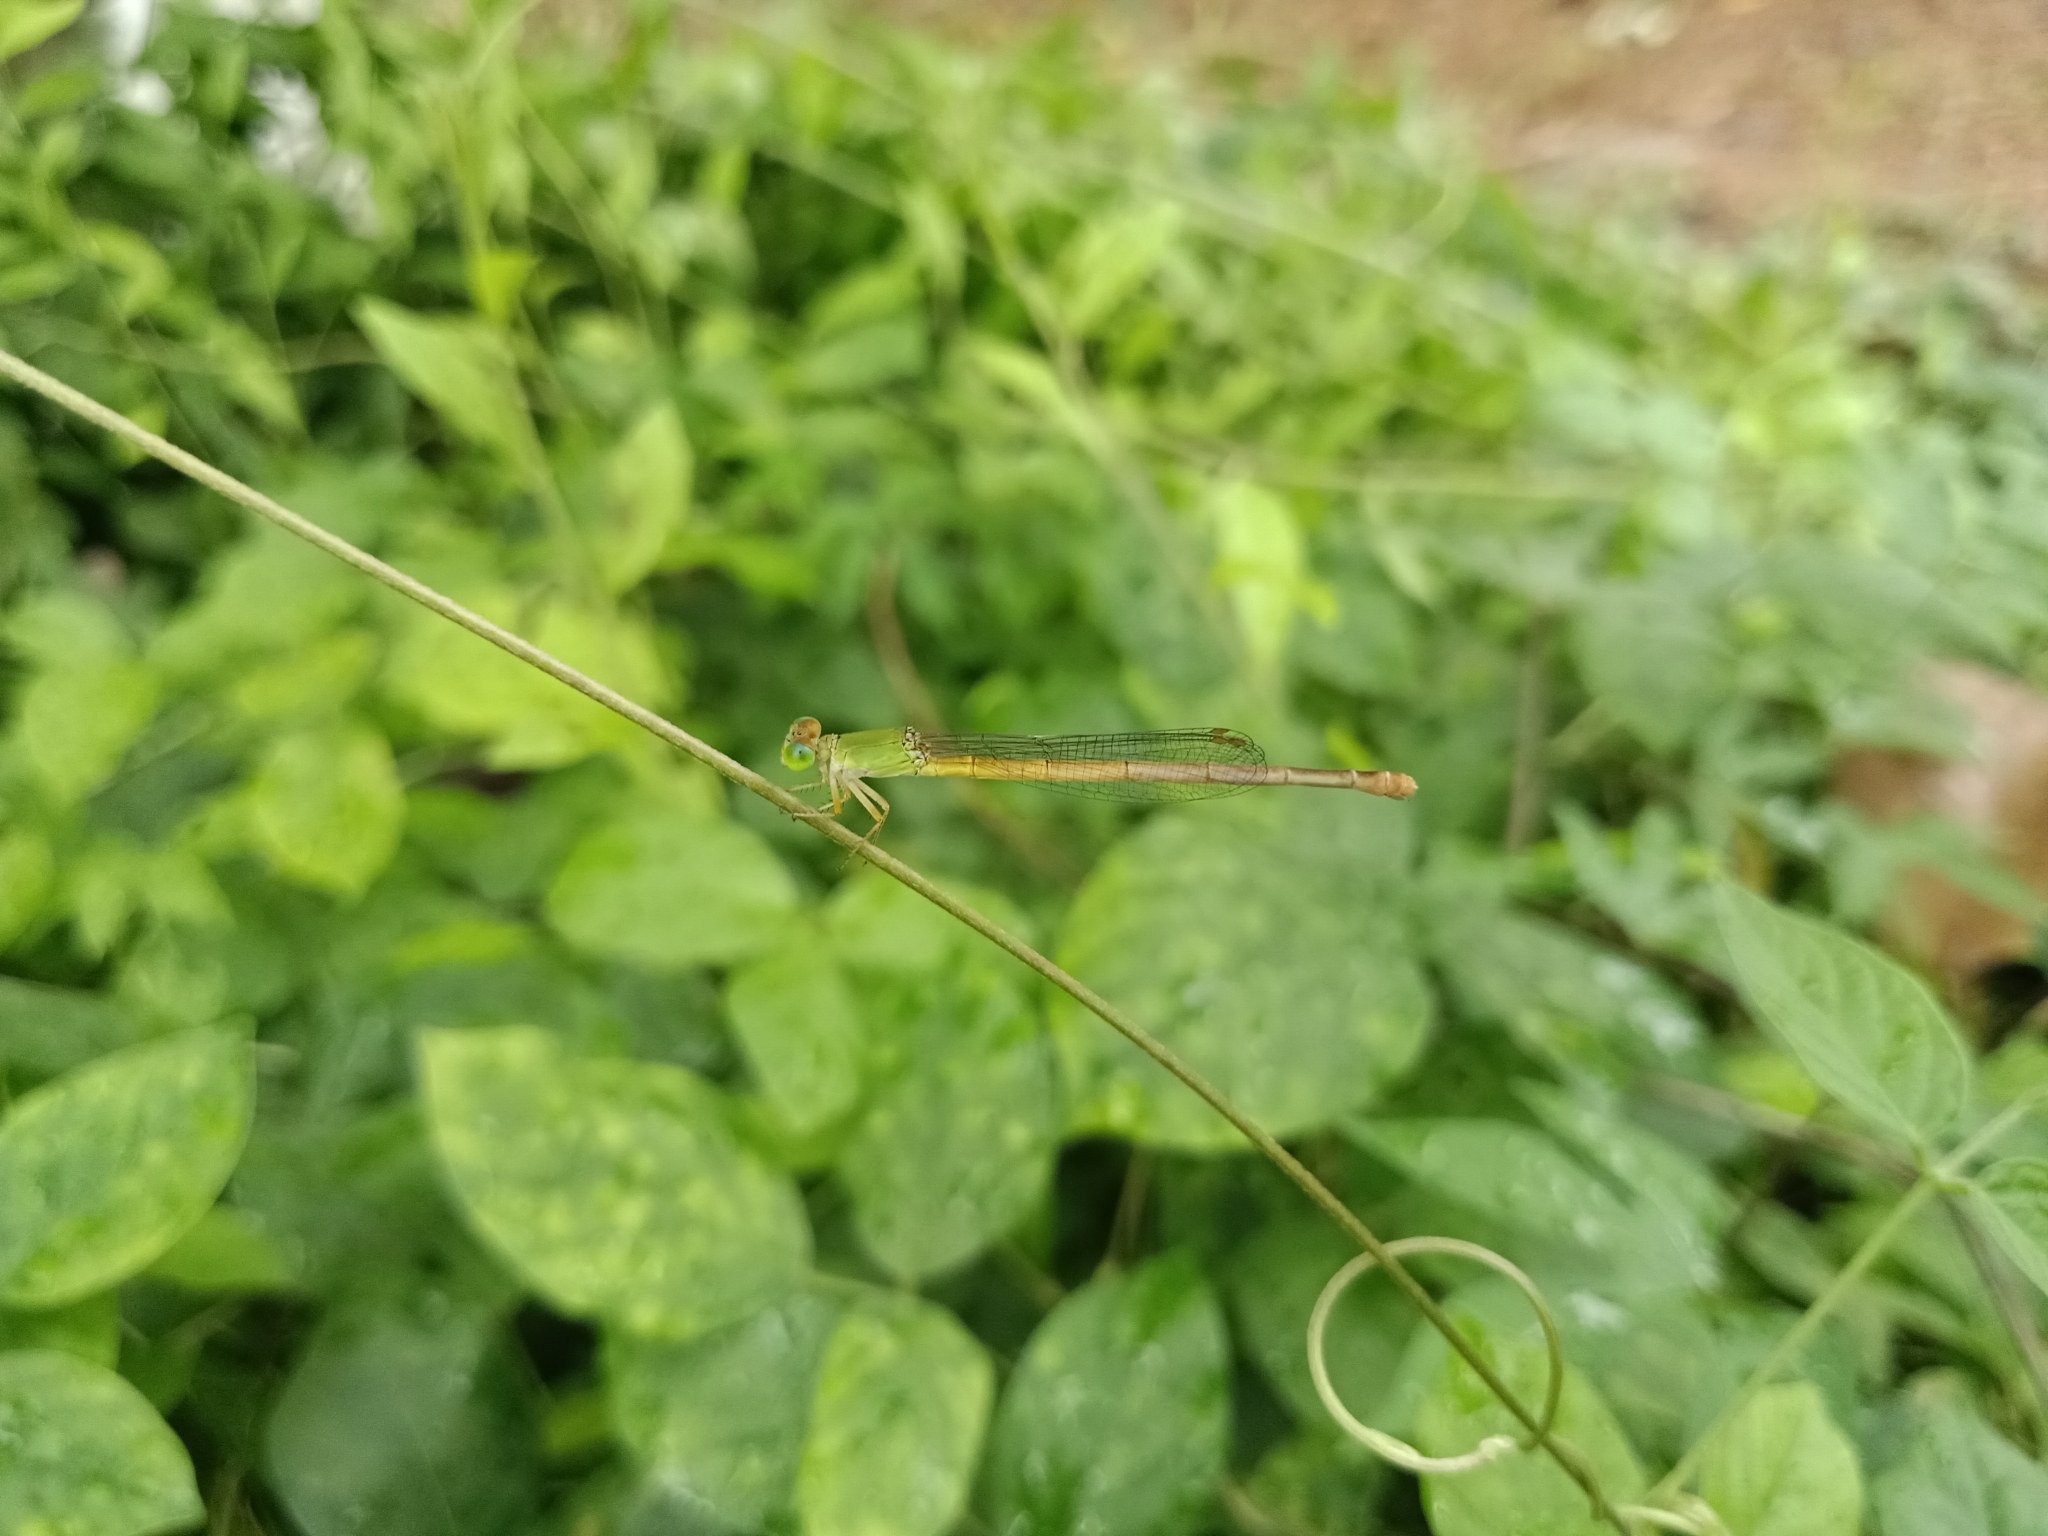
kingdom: Animalia
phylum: Arthropoda
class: Insecta
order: Odonata
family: Coenagrionidae
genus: Ceriagrion
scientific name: Ceriagrion coromandelianum
